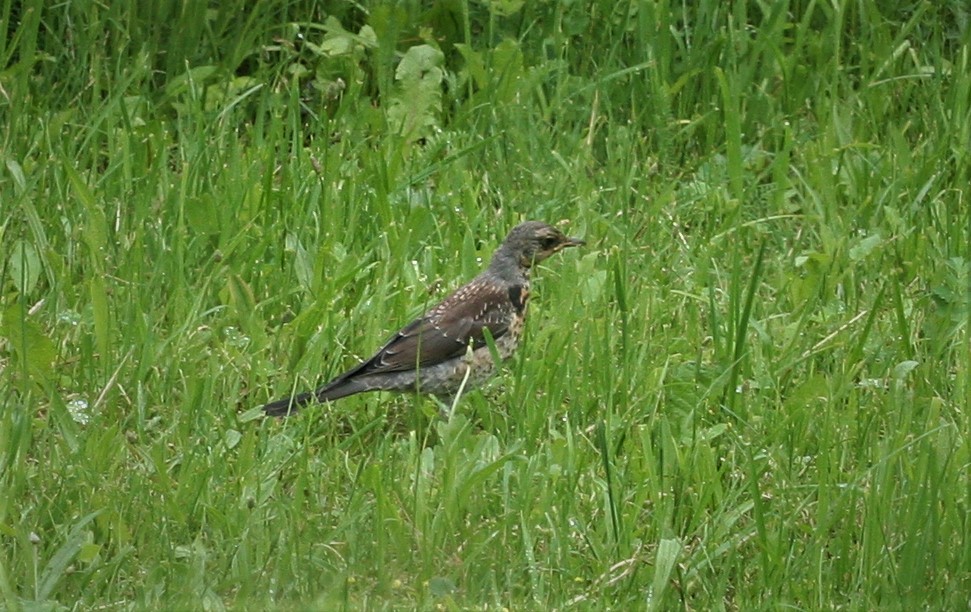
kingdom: Animalia
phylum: Chordata
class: Aves
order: Passeriformes
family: Turdidae
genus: Turdus
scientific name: Turdus pilaris
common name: Fieldfare
